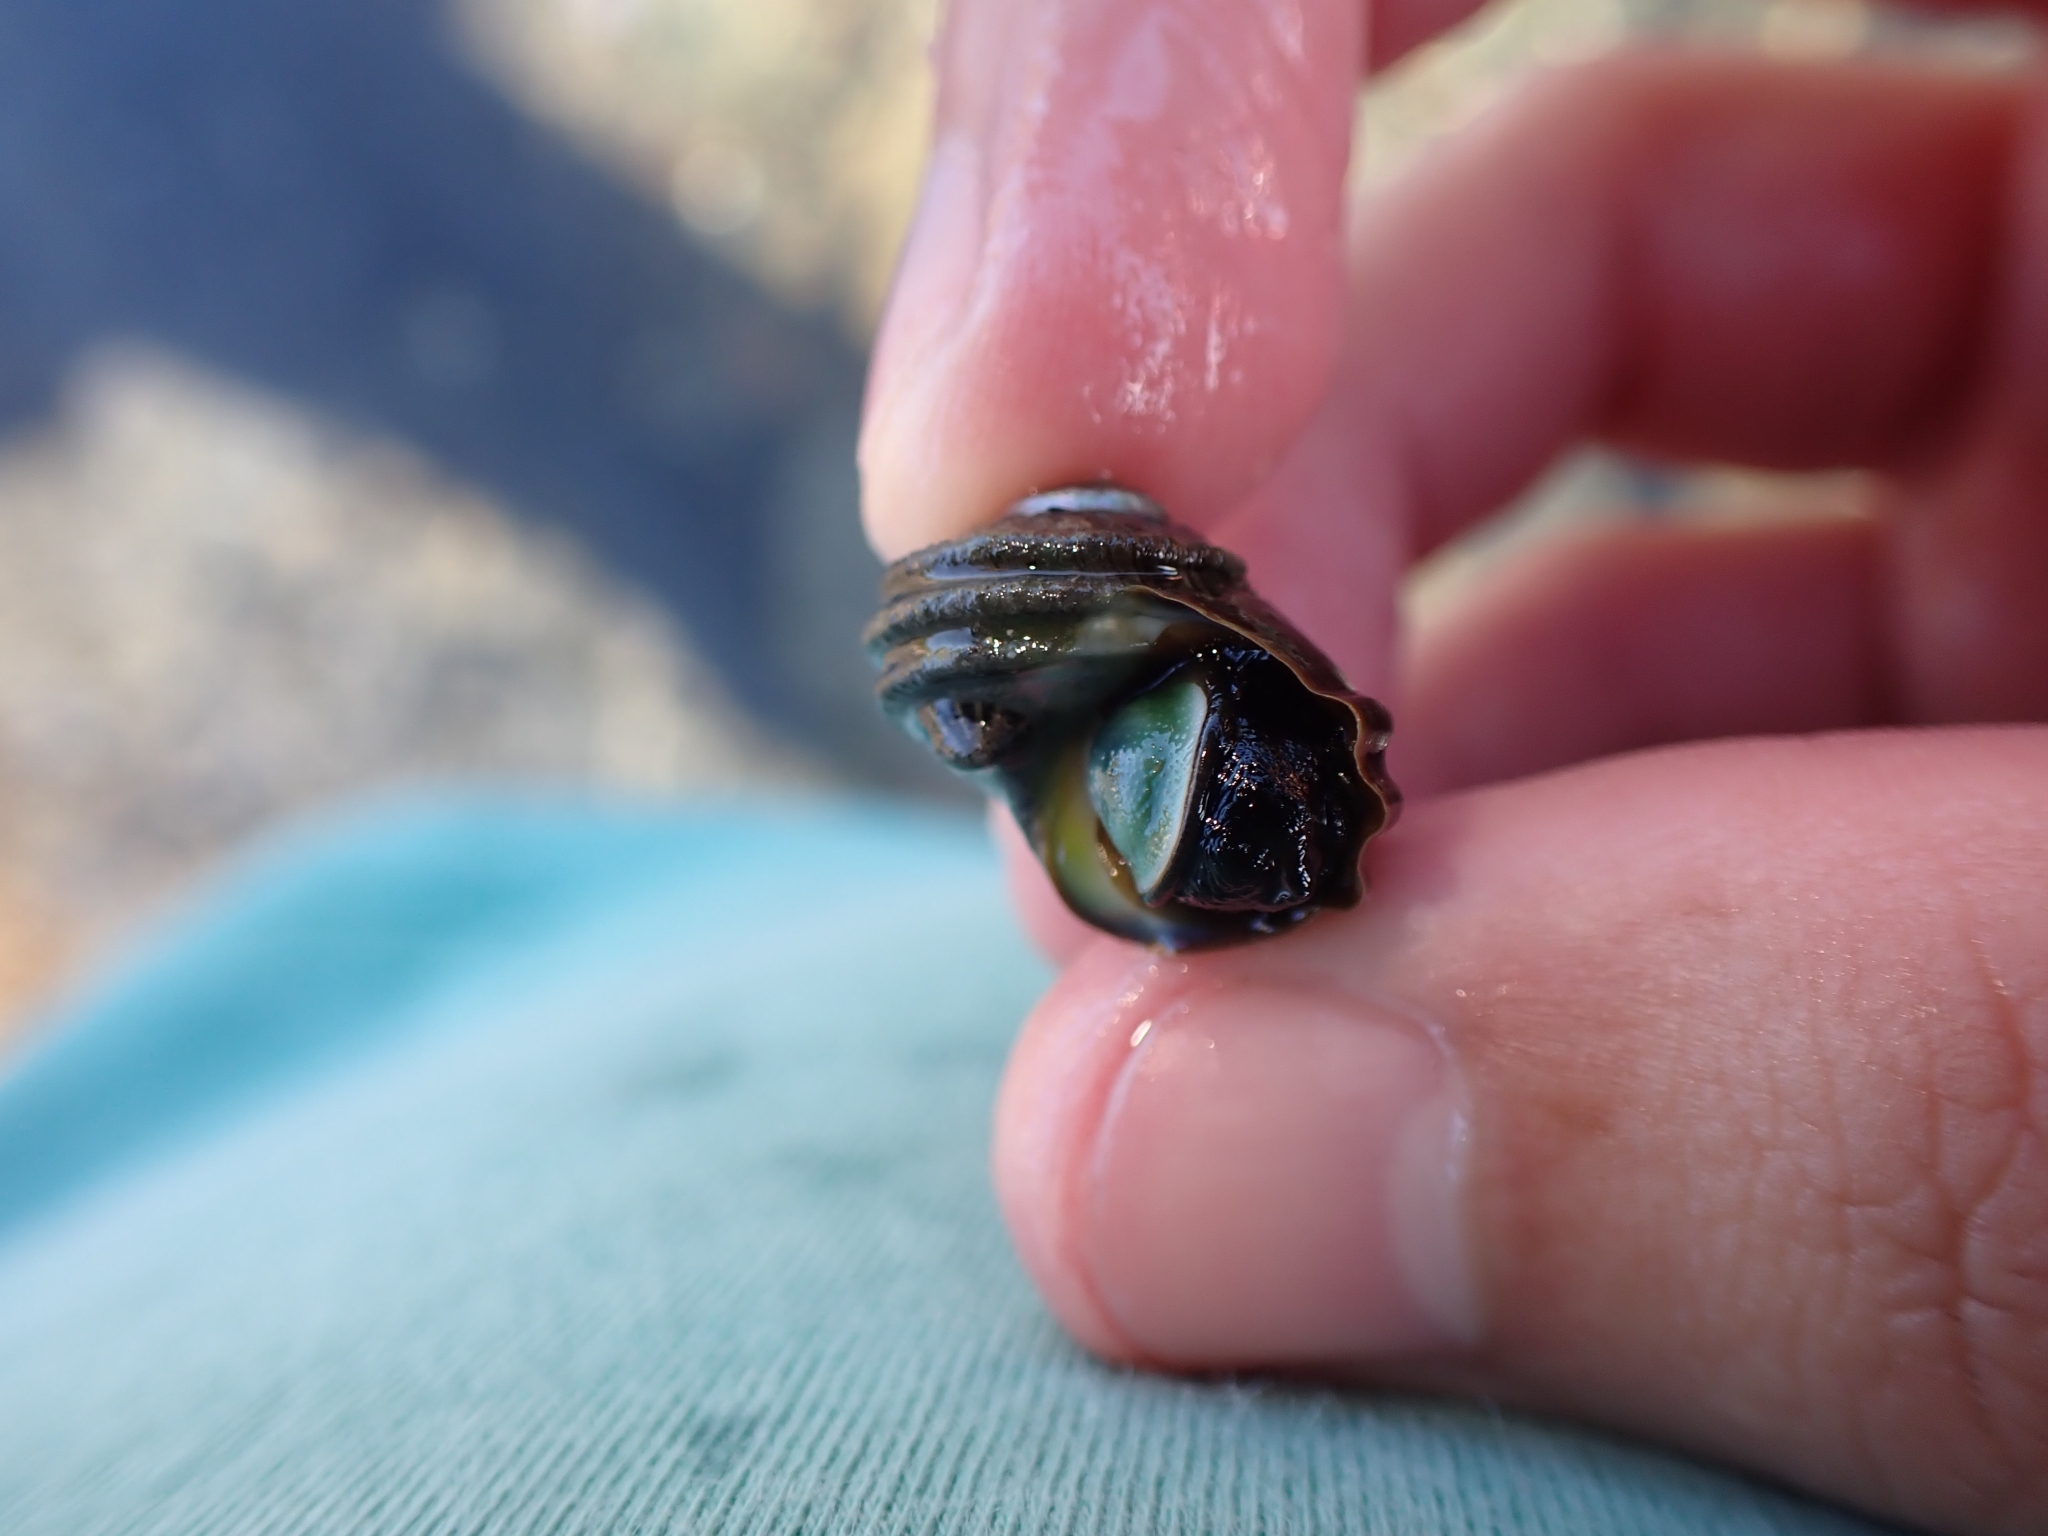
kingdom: Animalia
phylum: Mollusca
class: Gastropoda
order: Trochida
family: Turbinidae
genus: Lunella
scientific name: Lunella smaragda
